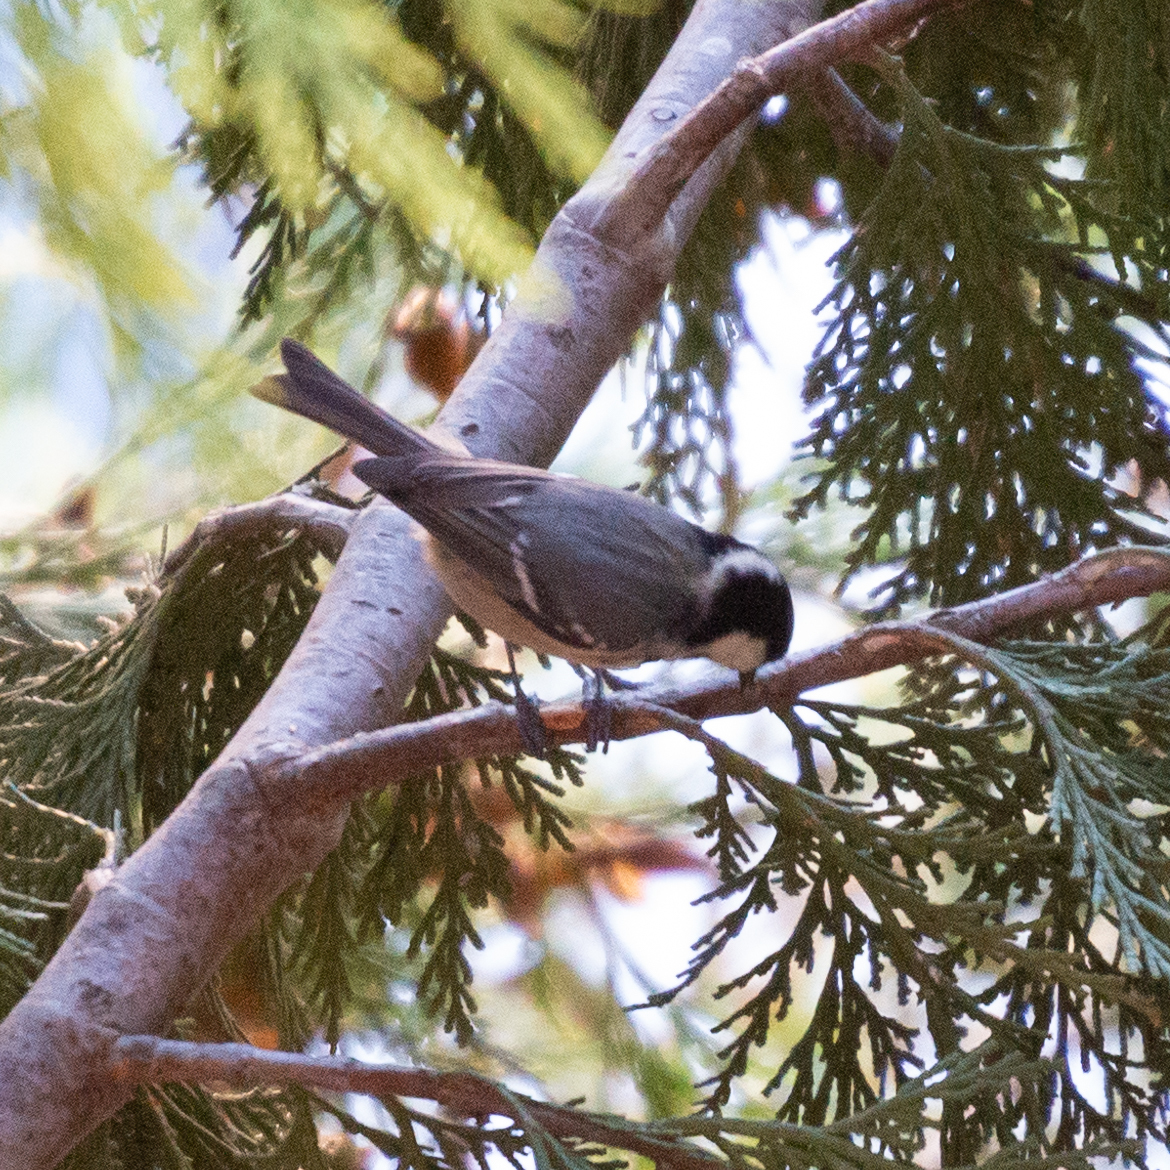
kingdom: Animalia
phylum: Chordata
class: Aves
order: Passeriformes
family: Paridae
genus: Periparus
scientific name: Periparus ater
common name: Coal tit
